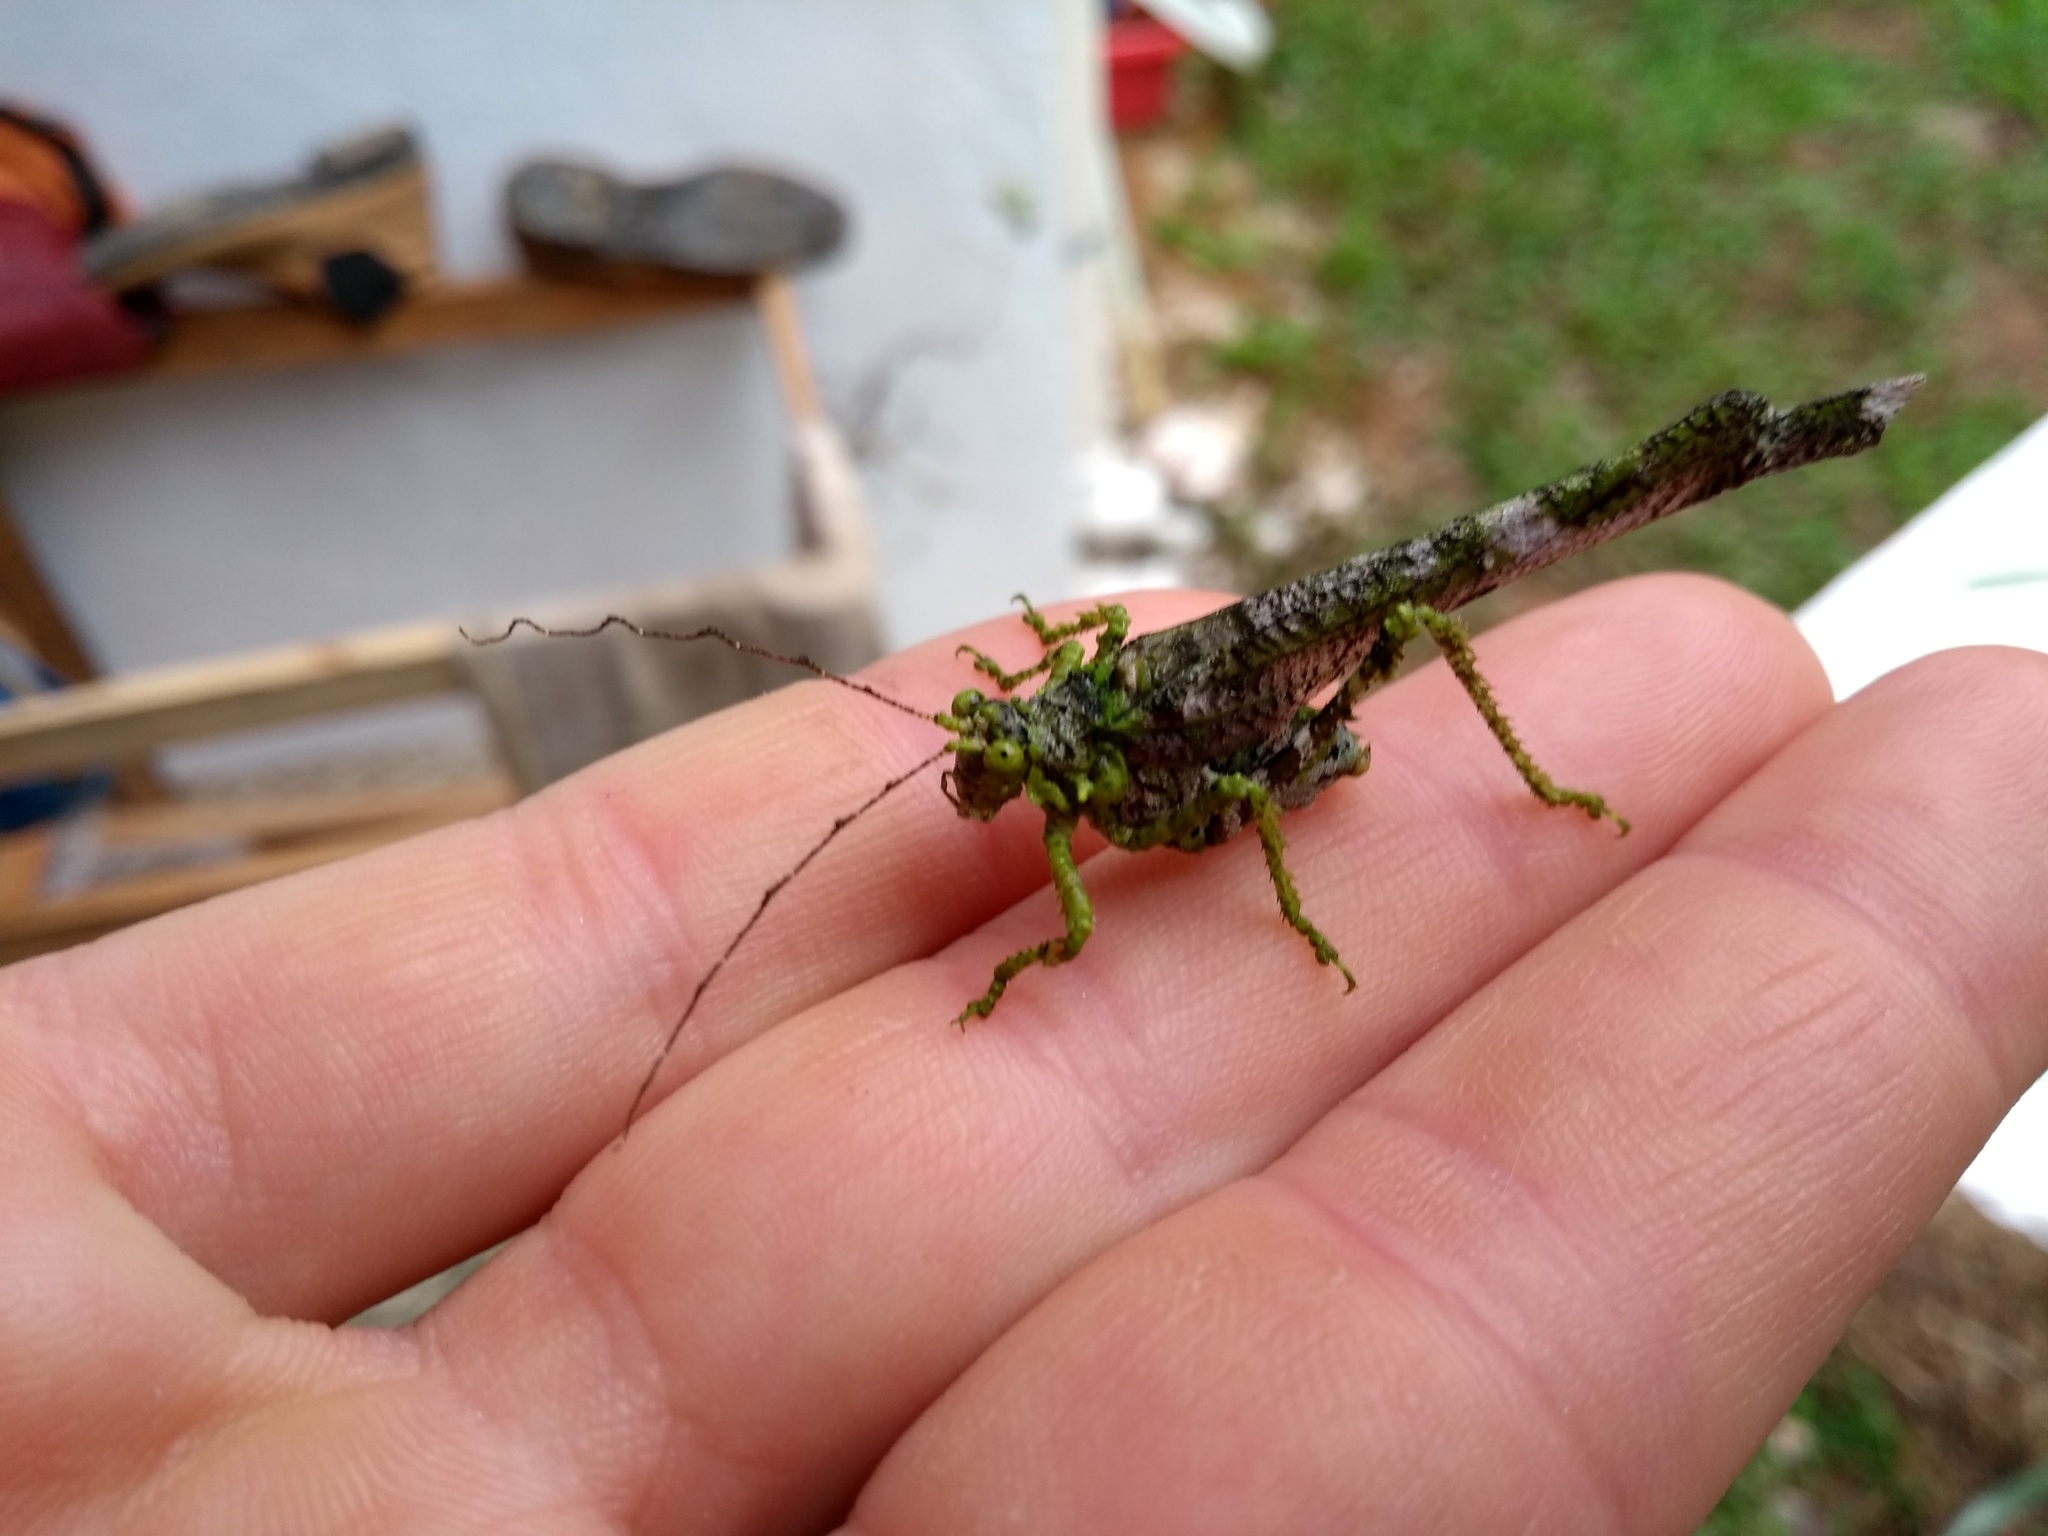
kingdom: Animalia
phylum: Arthropoda
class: Insecta
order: Orthoptera
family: Tettigoniidae
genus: Anaphidna
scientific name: Anaphidna verrucosa
